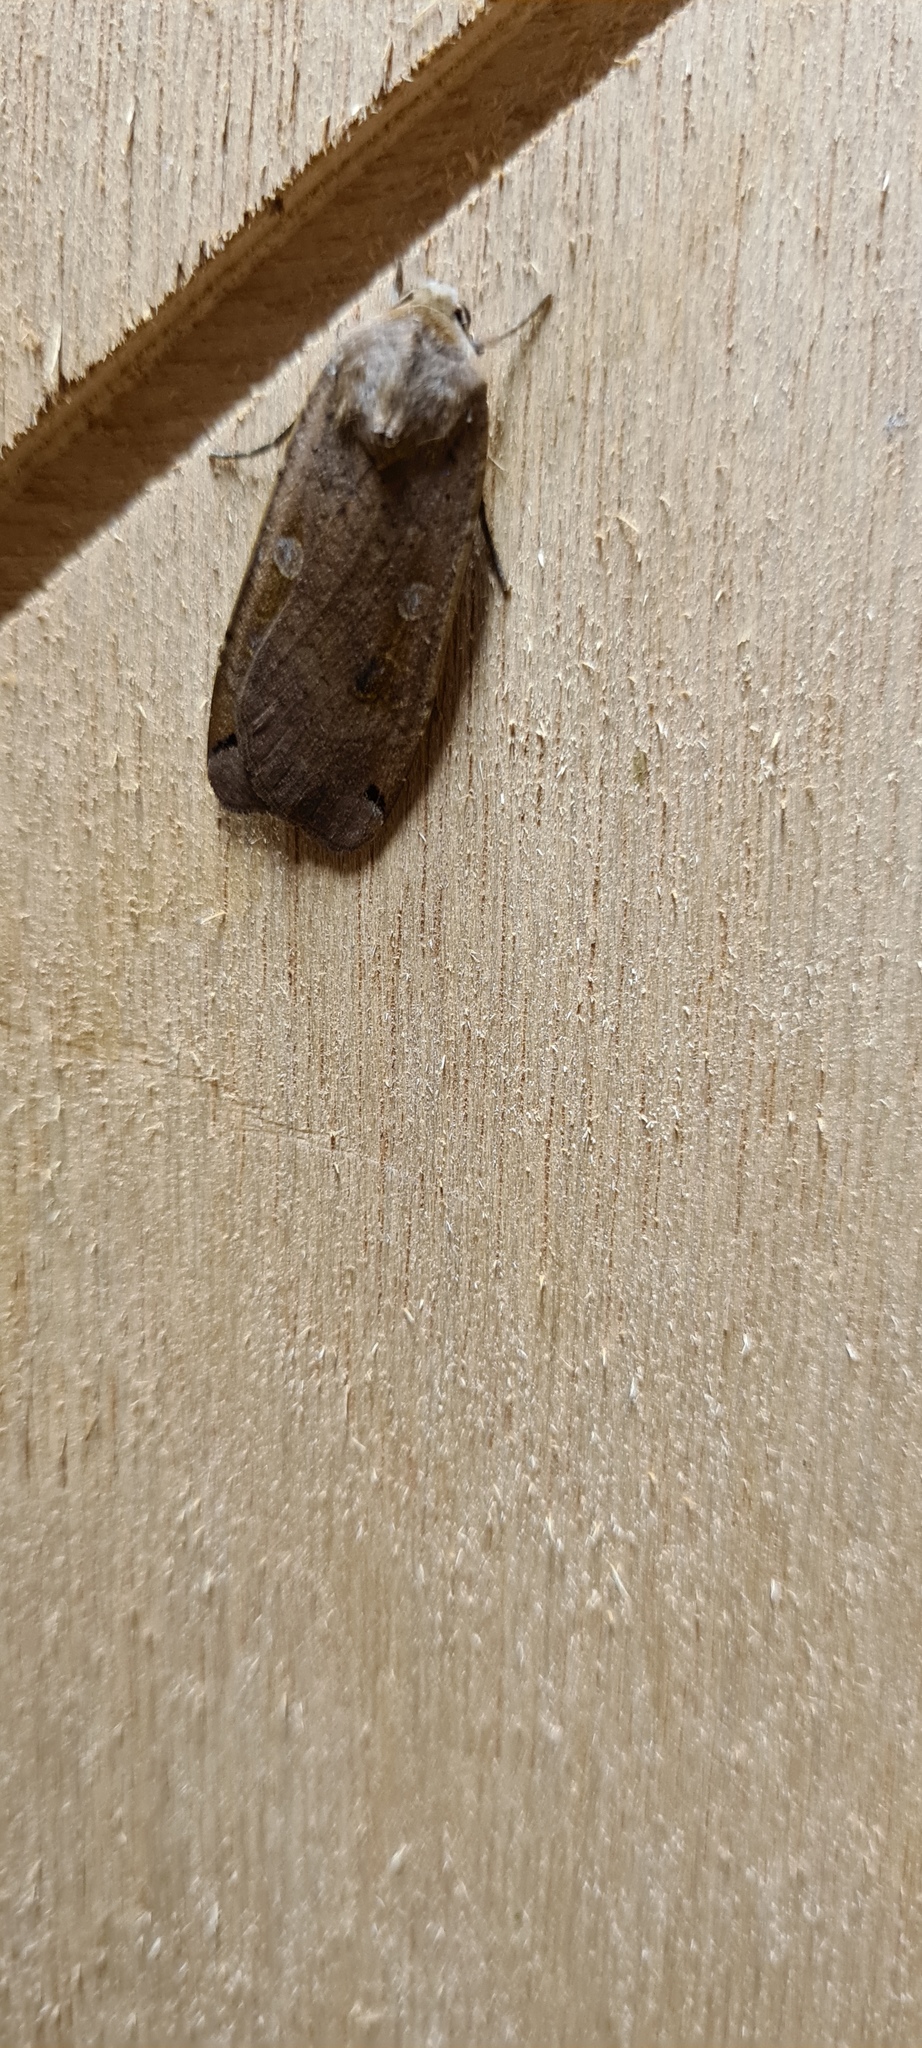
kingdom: Animalia
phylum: Arthropoda
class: Insecta
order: Lepidoptera
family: Noctuidae
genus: Noctua
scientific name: Noctua pronuba
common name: Large yellow underwing
